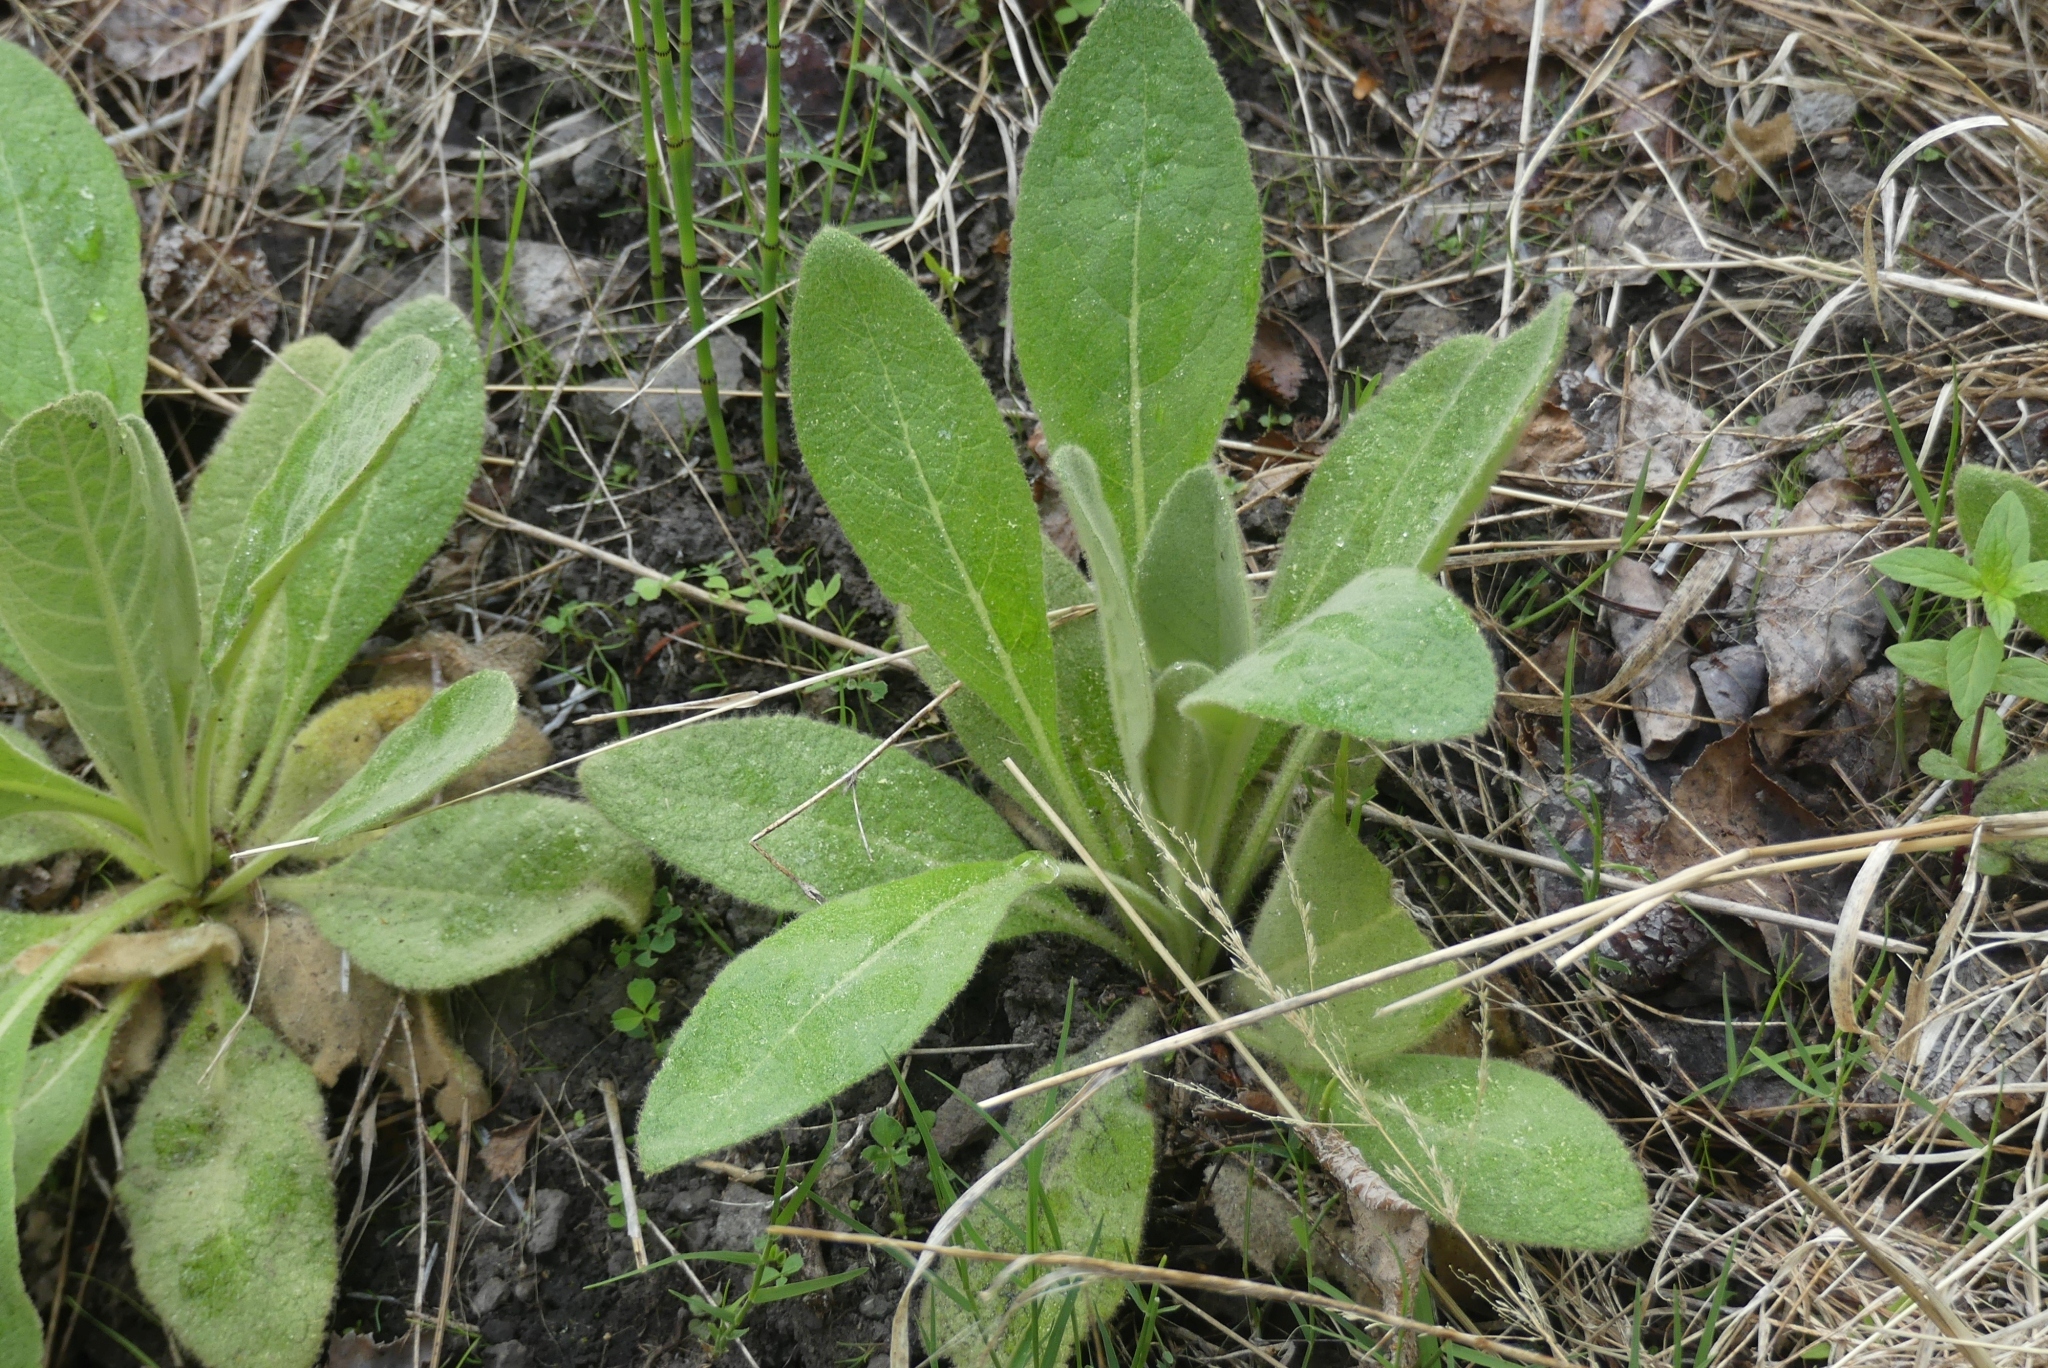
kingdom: Plantae
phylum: Tracheophyta
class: Magnoliopsida
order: Lamiales
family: Scrophulariaceae
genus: Verbascum
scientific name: Verbascum thapsus
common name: Common mullein
